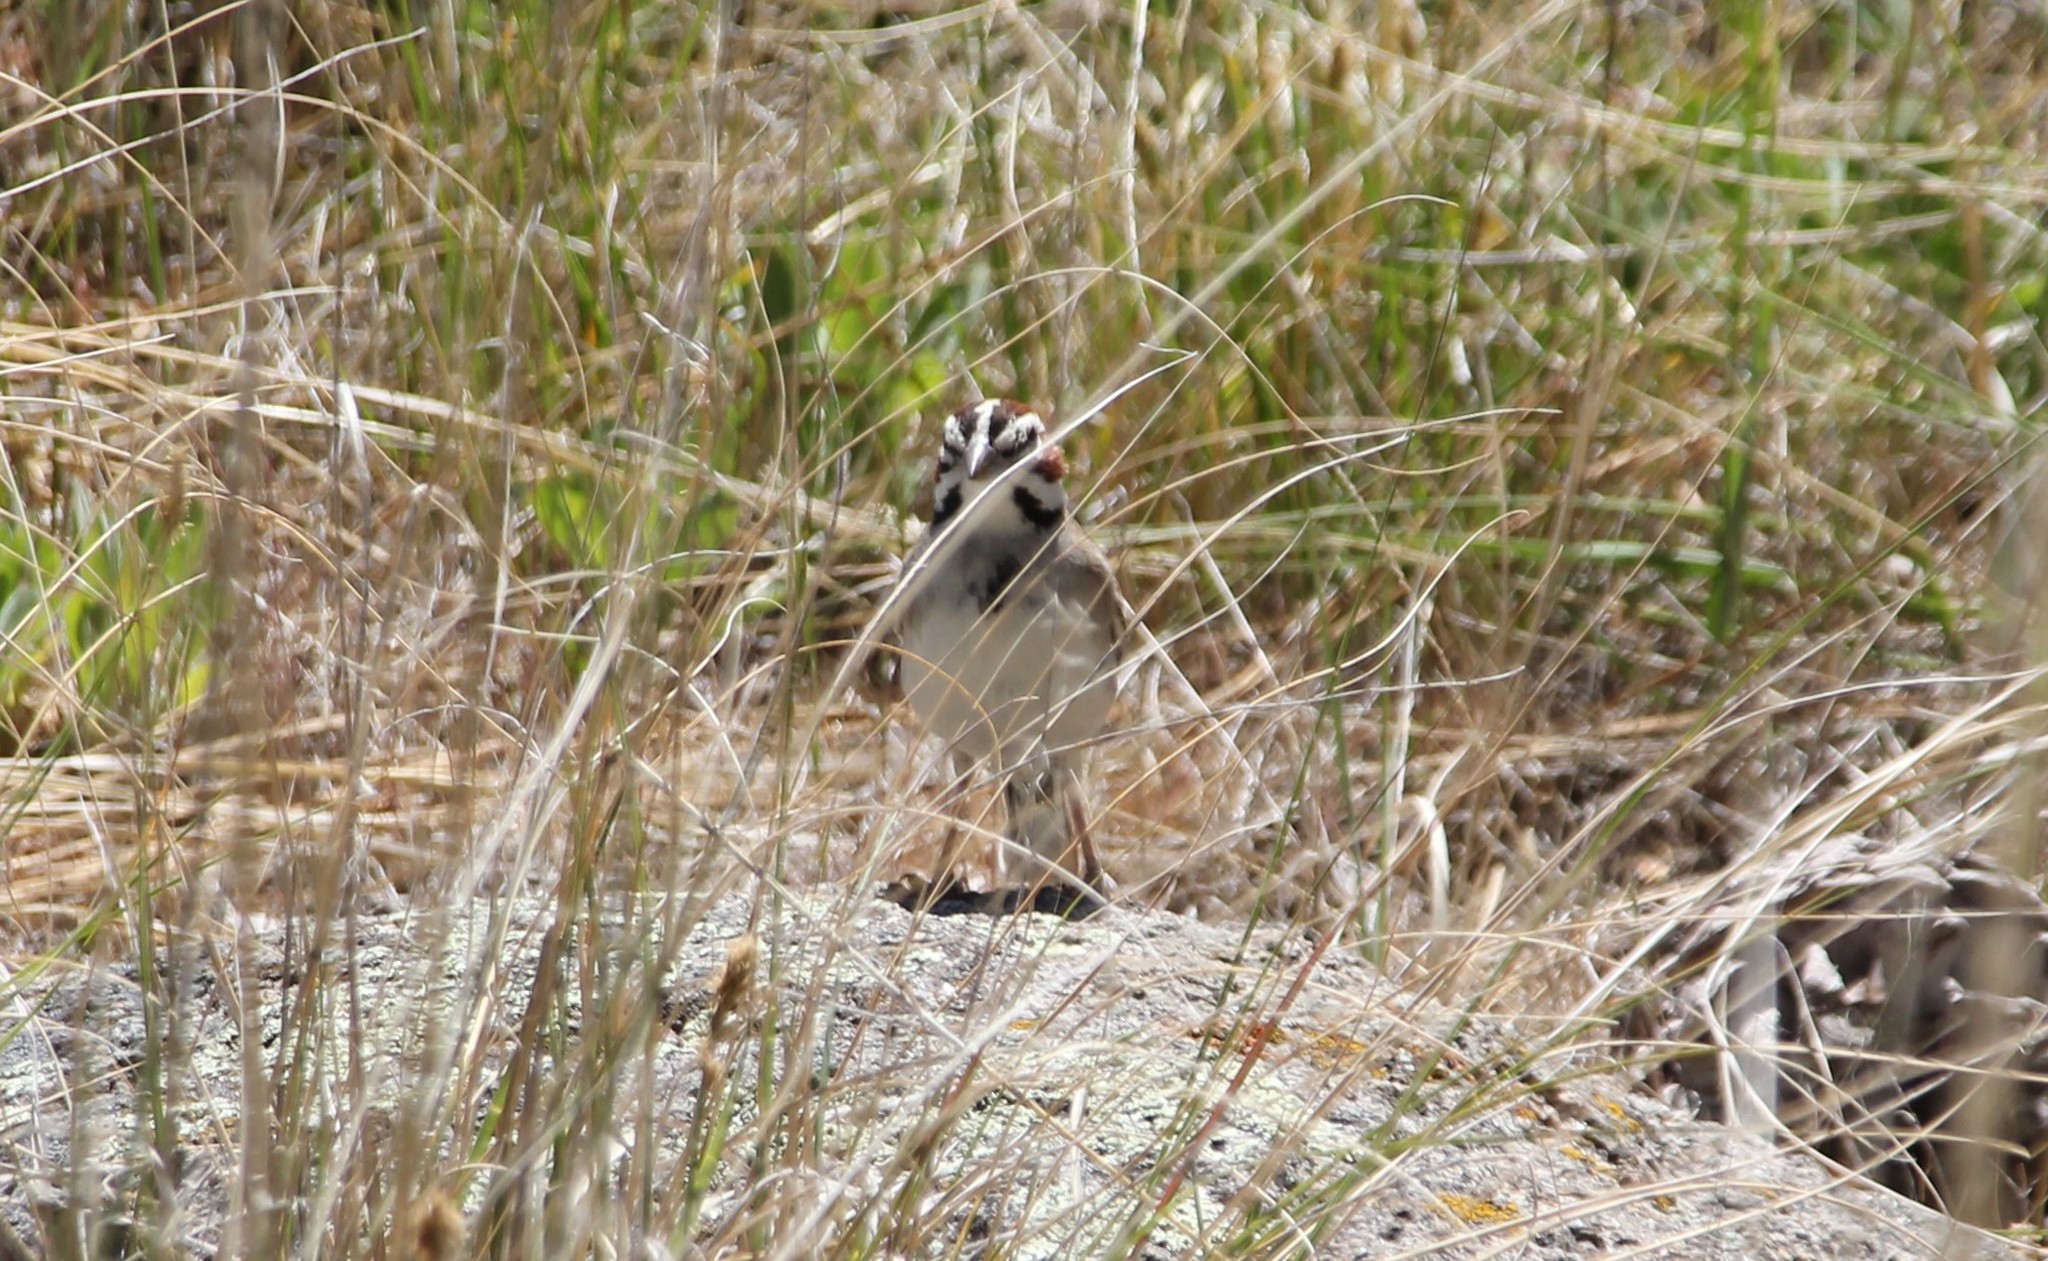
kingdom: Animalia
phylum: Chordata
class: Aves
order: Passeriformes
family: Passerellidae
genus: Chondestes
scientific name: Chondestes grammacus
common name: Lark sparrow
